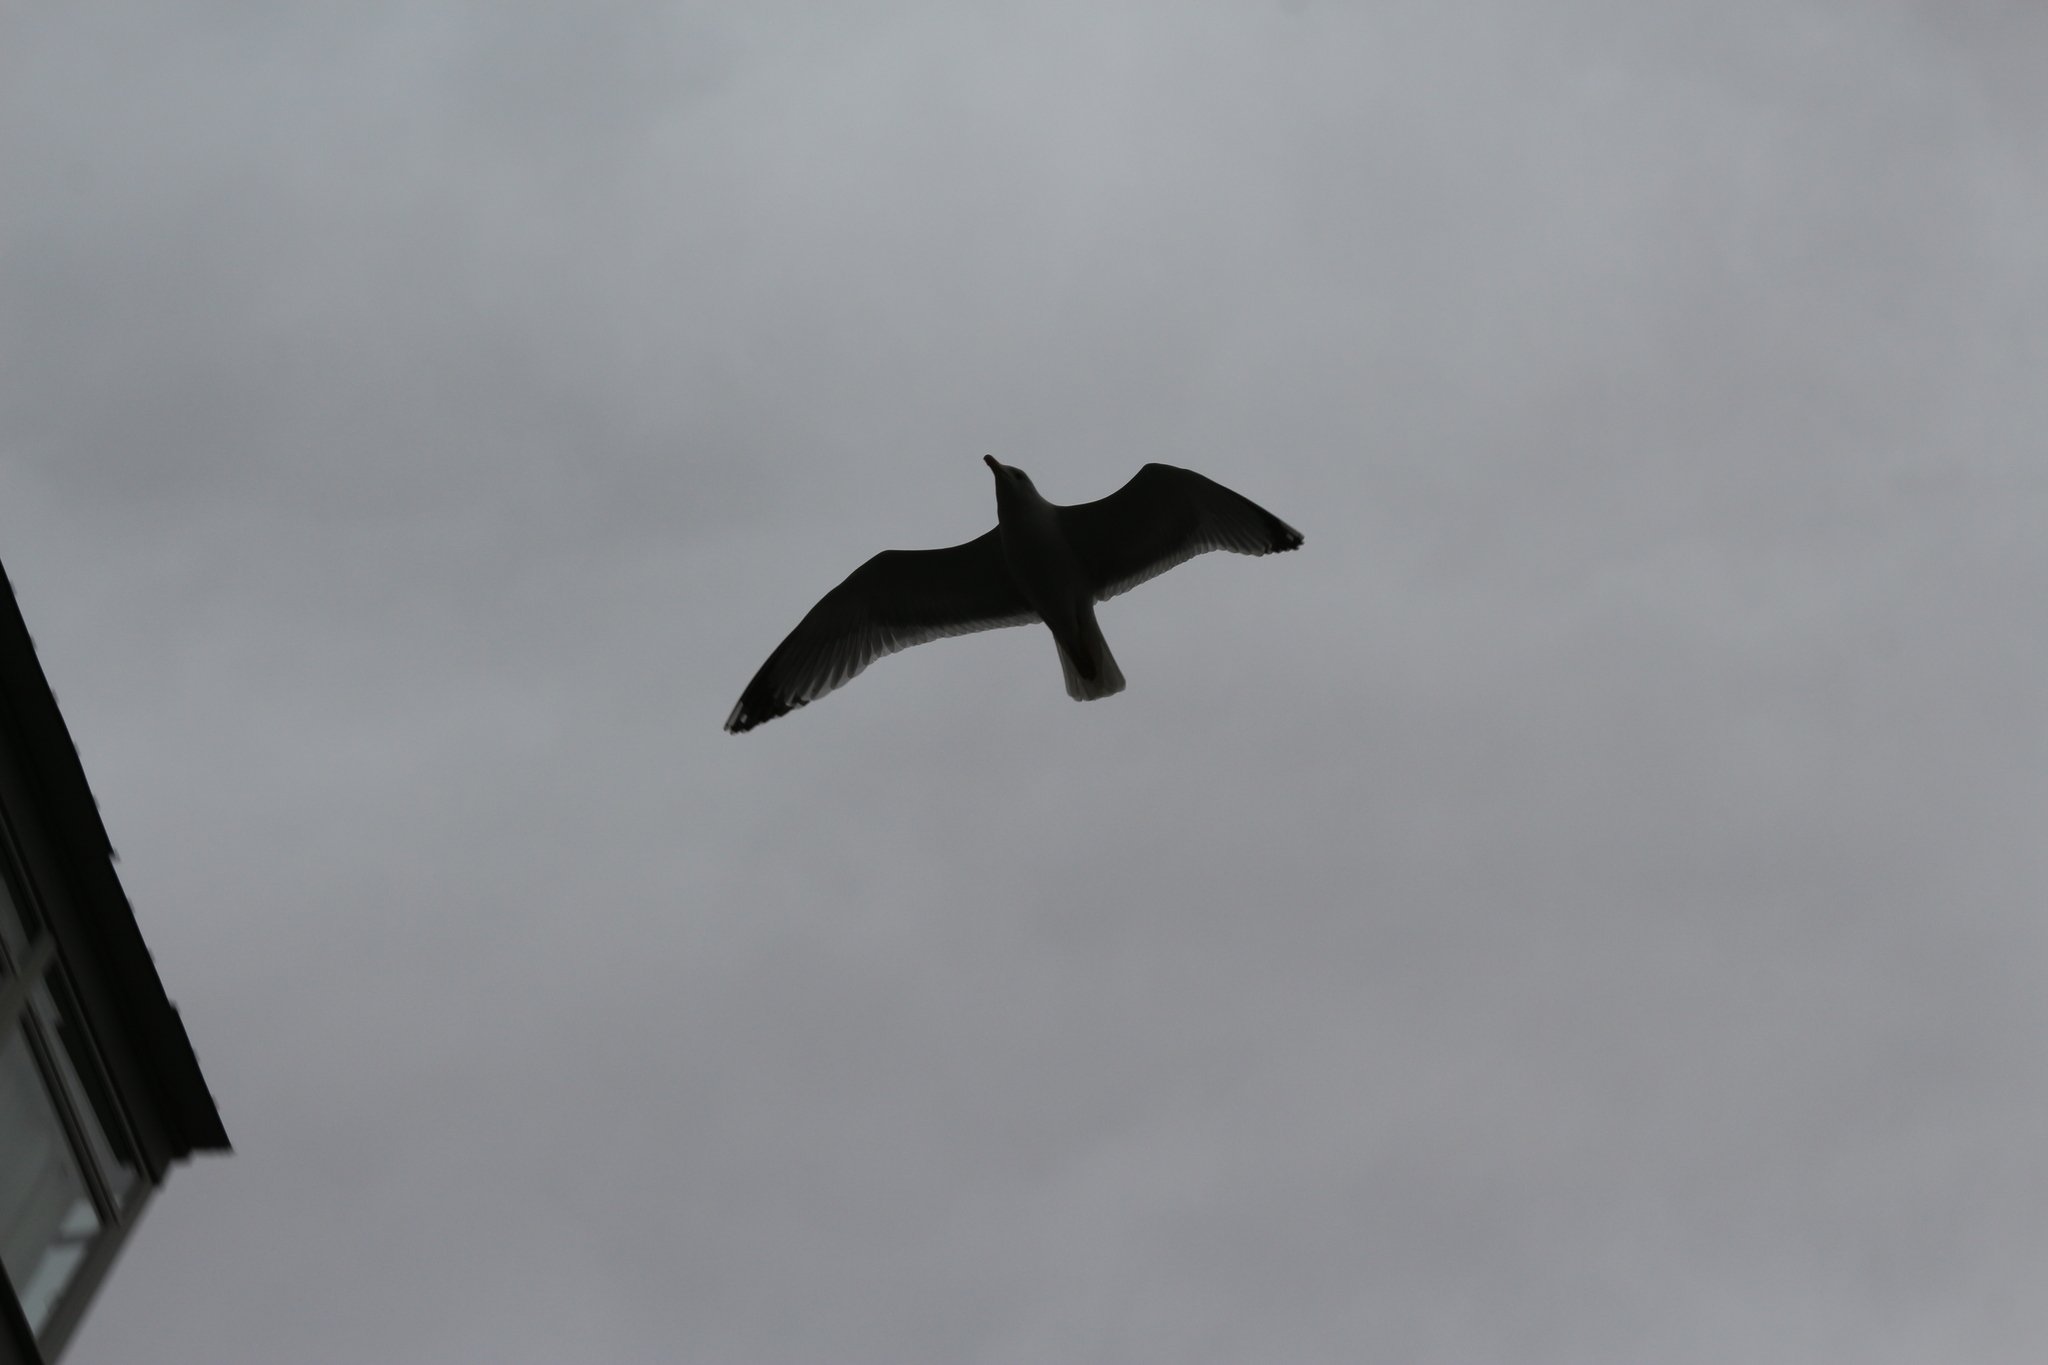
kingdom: Animalia
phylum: Chordata
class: Aves
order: Charadriiformes
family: Laridae
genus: Larus
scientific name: Larus michahellis
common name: Yellow-legged gull
